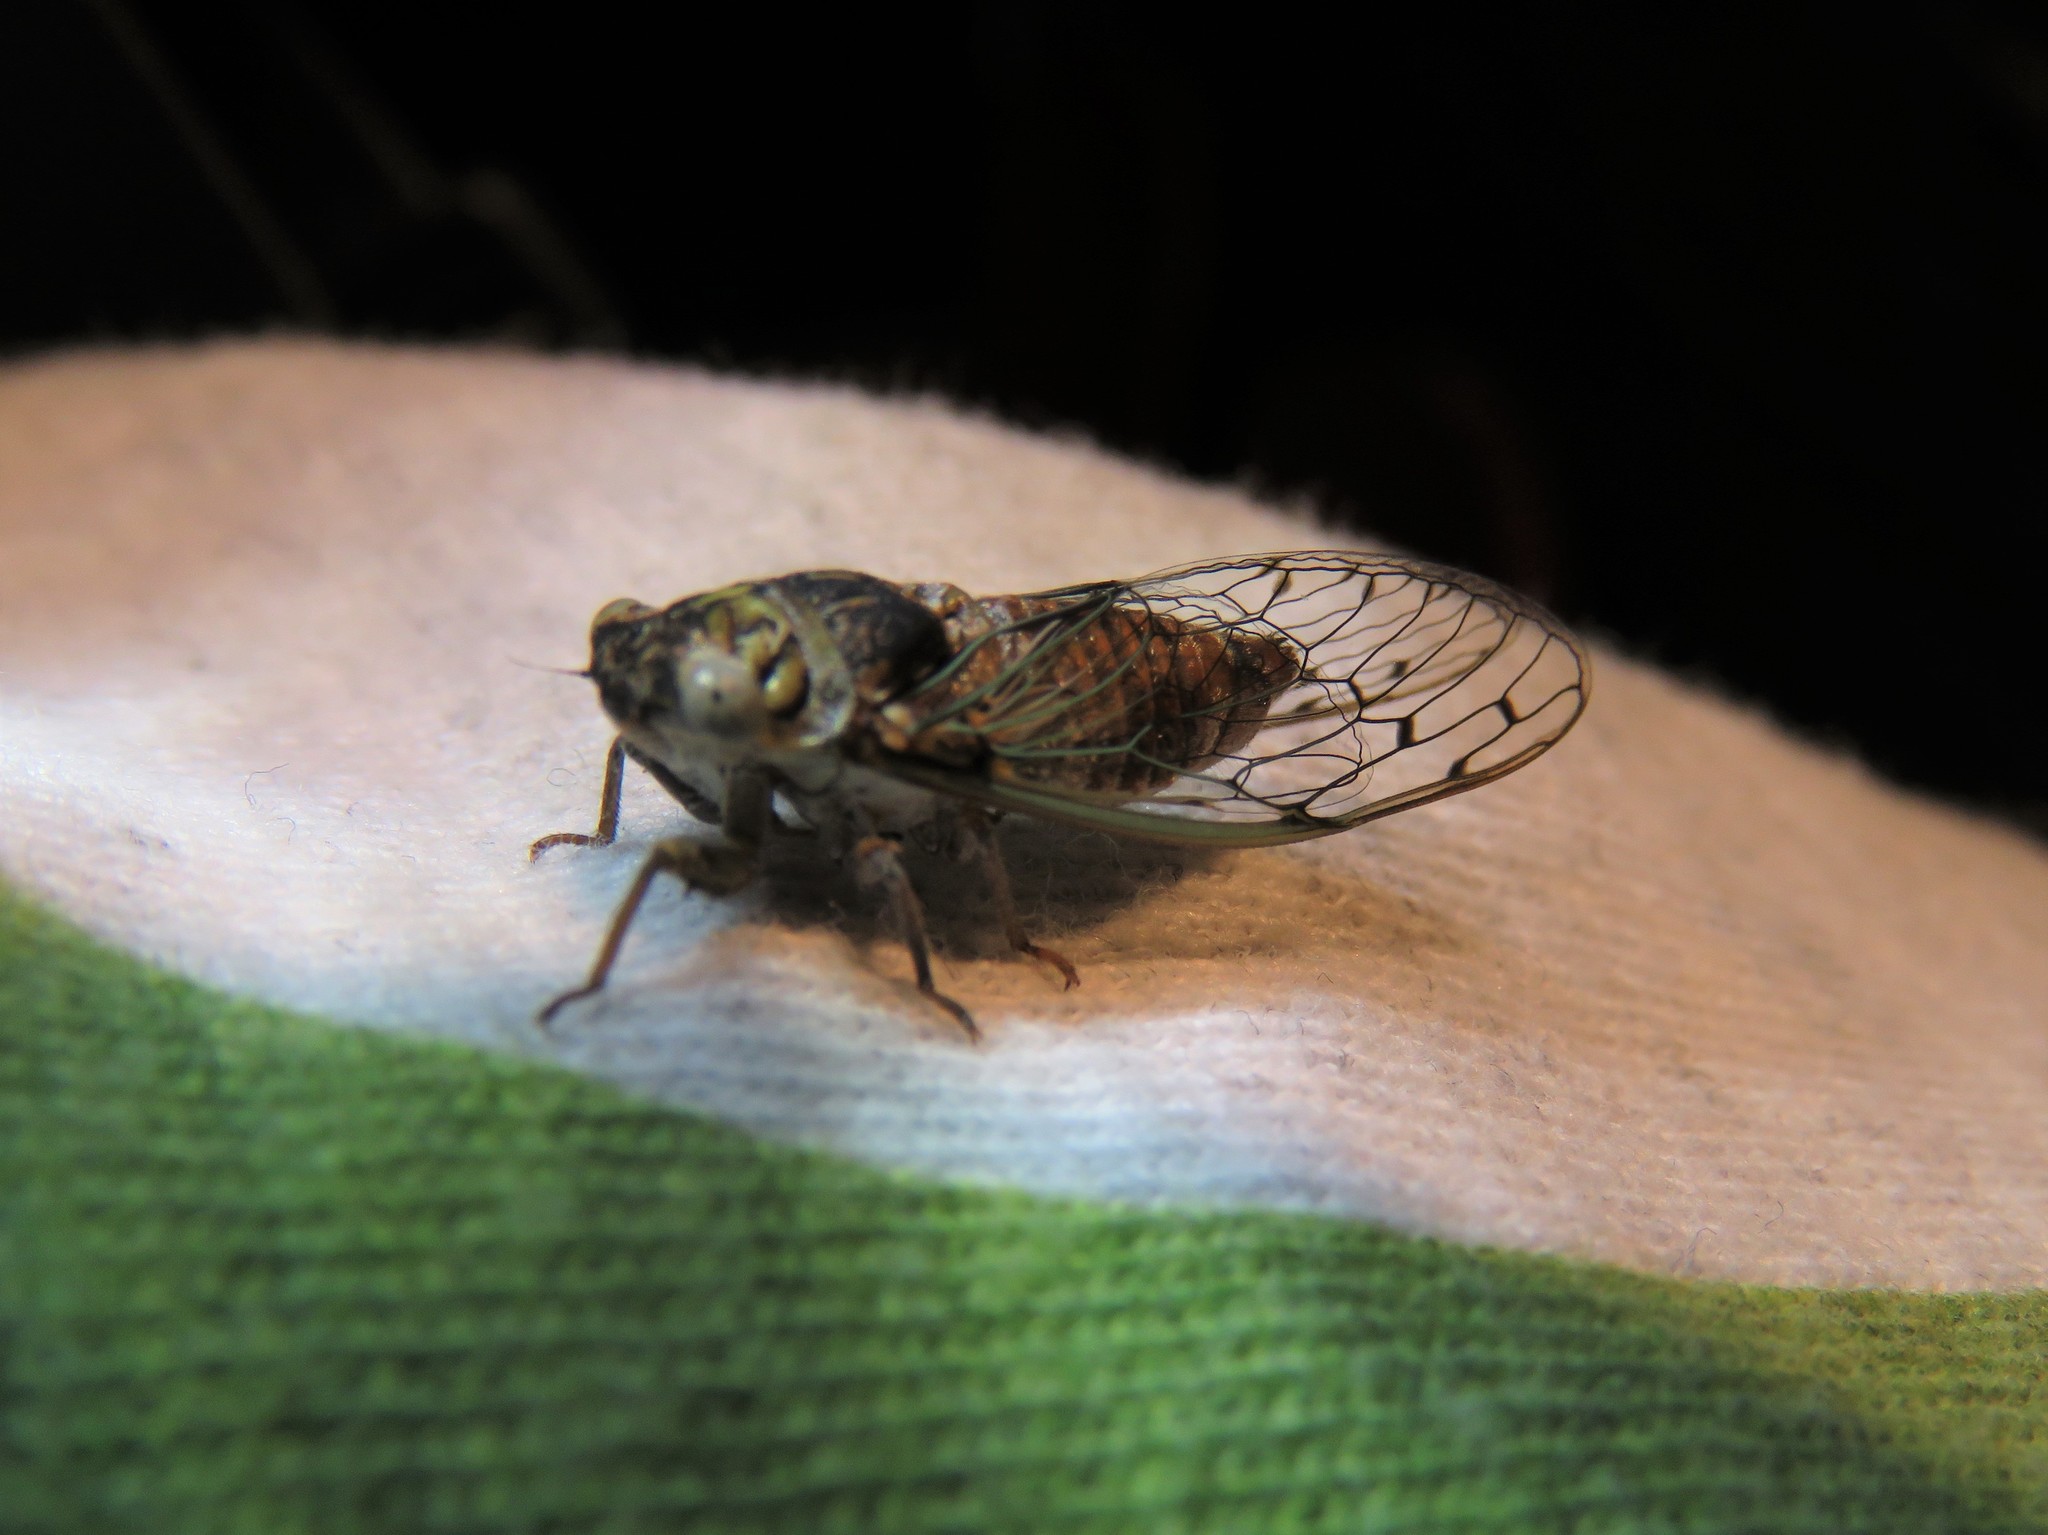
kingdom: Animalia
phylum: Arthropoda
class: Insecta
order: Hemiptera
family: Cicadidae
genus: Pacarina
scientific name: Pacarina puella
